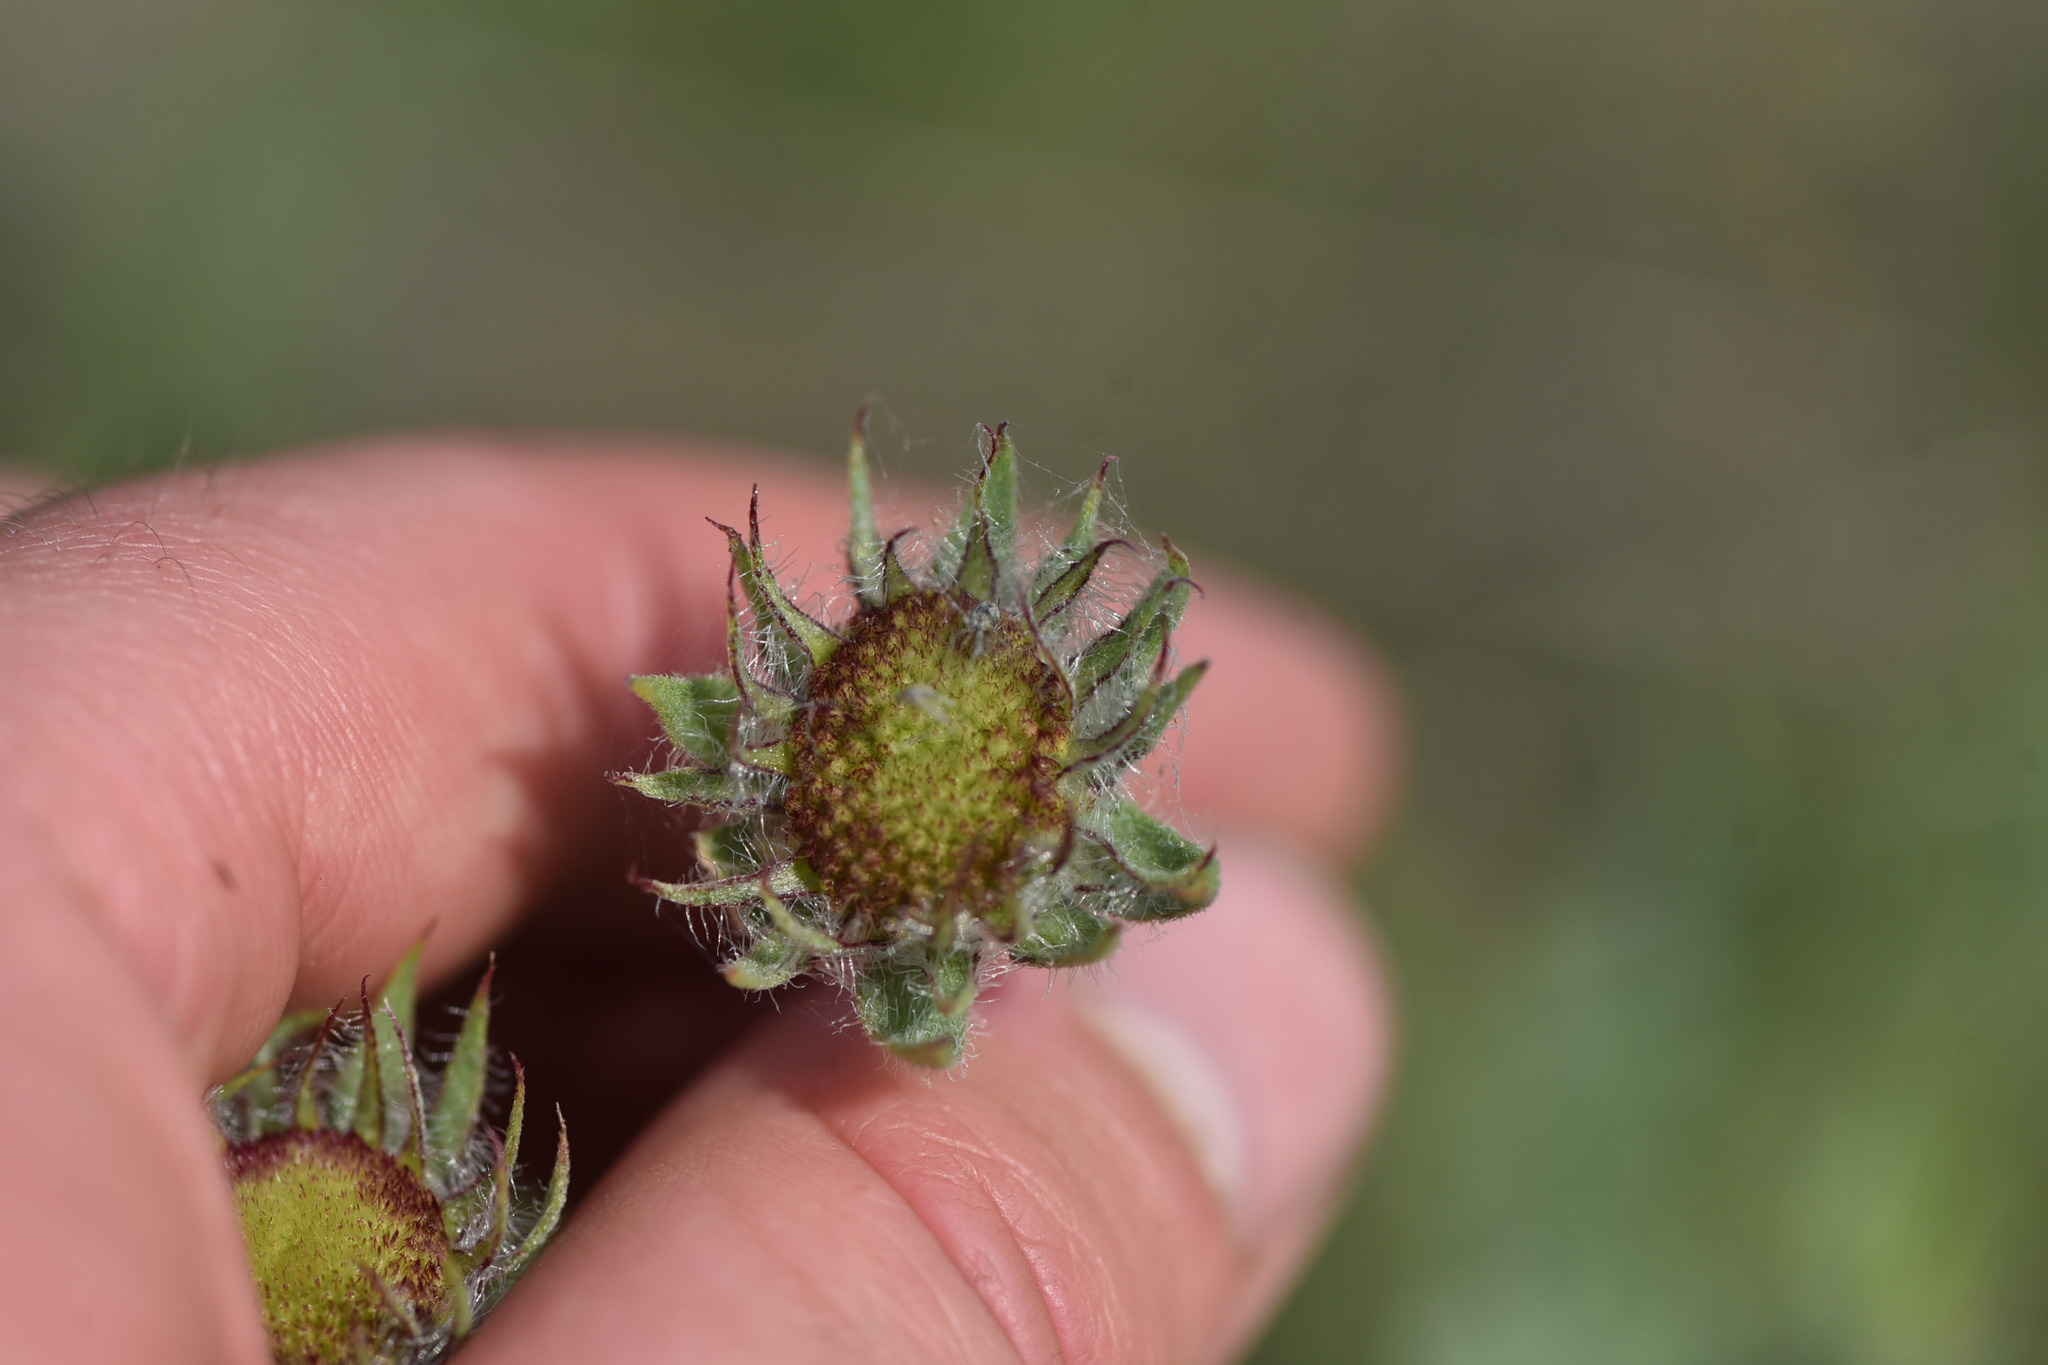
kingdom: Plantae
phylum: Tracheophyta
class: Magnoliopsida
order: Asterales
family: Asteraceae
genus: Gaillardia
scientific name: Gaillardia aristata
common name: Blanket-flower
